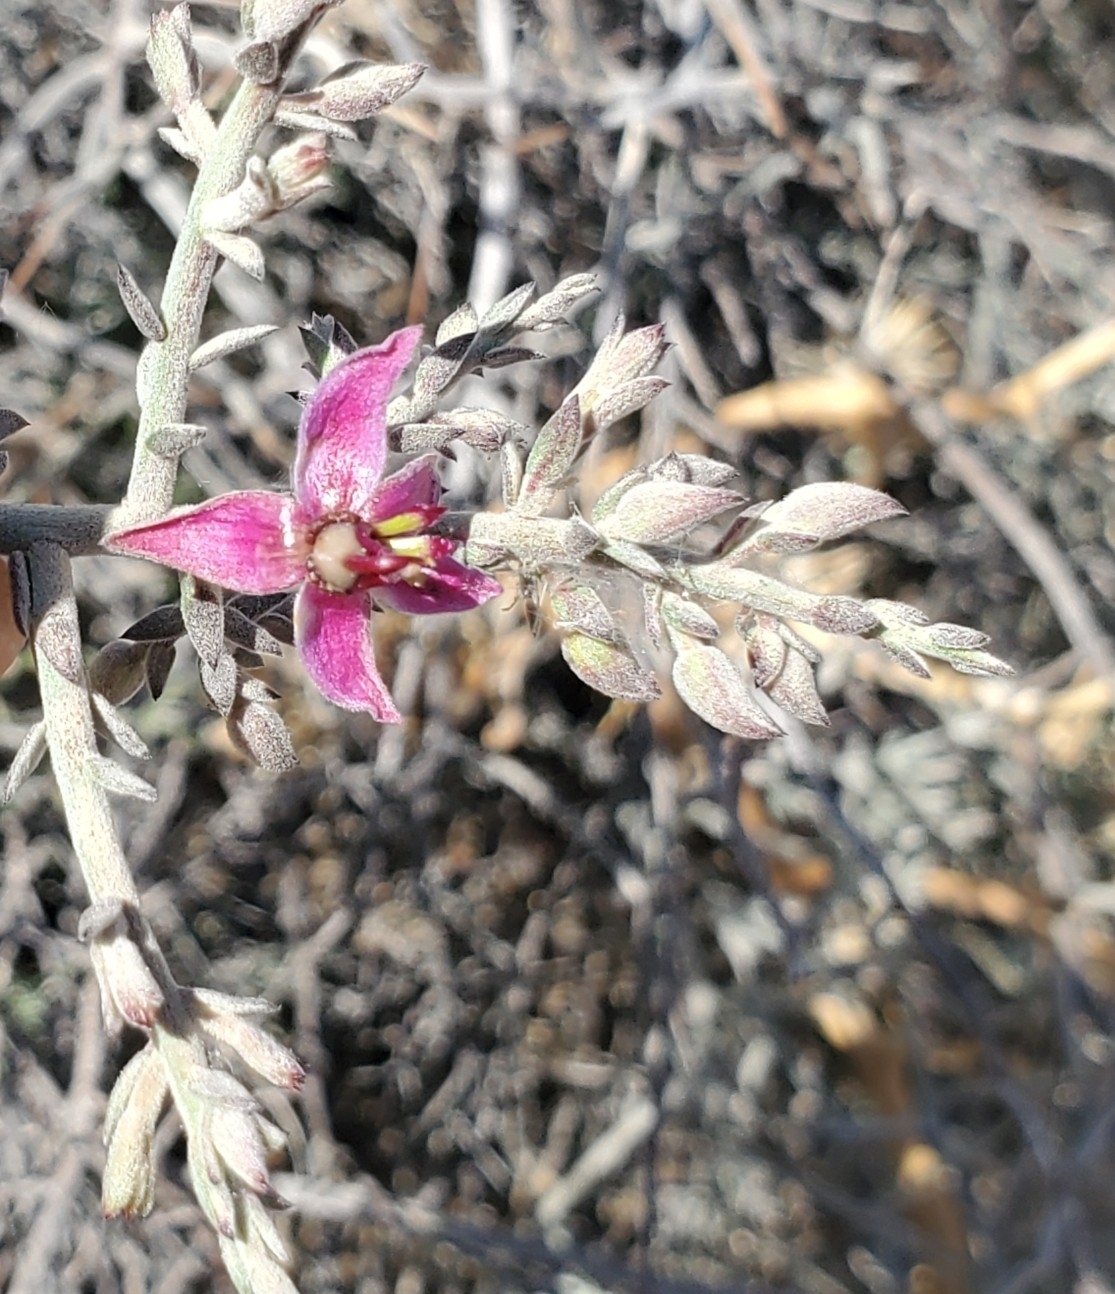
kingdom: Plantae
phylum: Tracheophyta
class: Magnoliopsida
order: Zygophyllales
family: Krameriaceae
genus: Krameria
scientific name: Krameria bicolor
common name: White ratany
